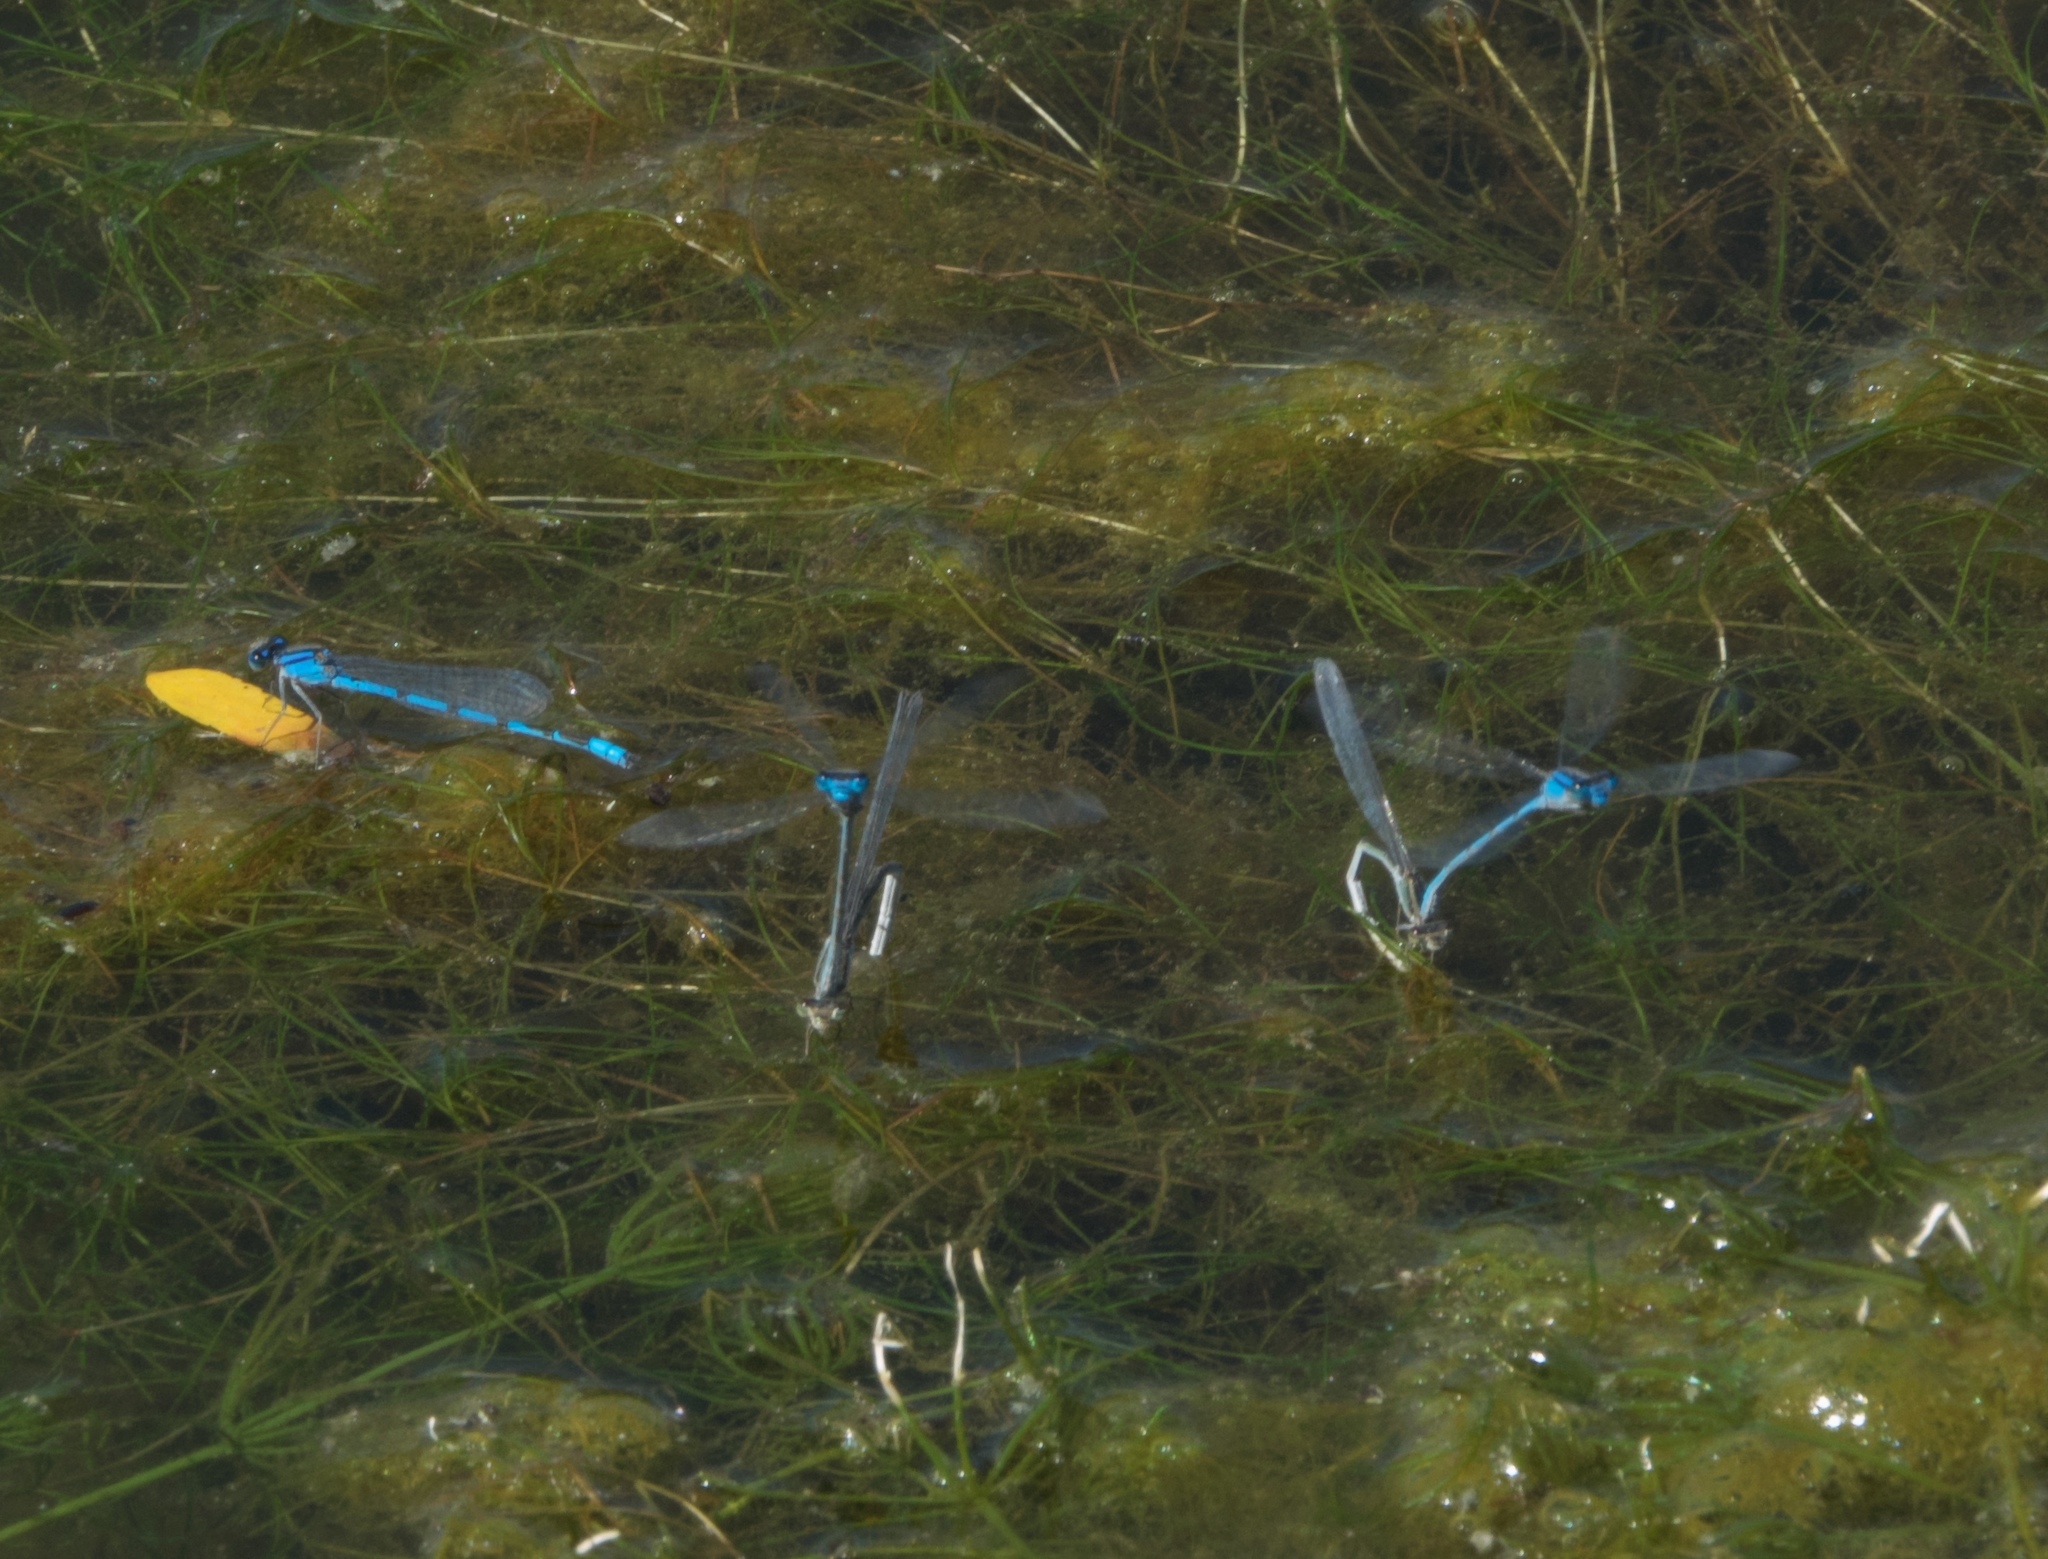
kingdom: Animalia
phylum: Arthropoda
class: Insecta
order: Odonata
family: Coenagrionidae
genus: Enallagma
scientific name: Enallagma civile
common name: Damselfly
